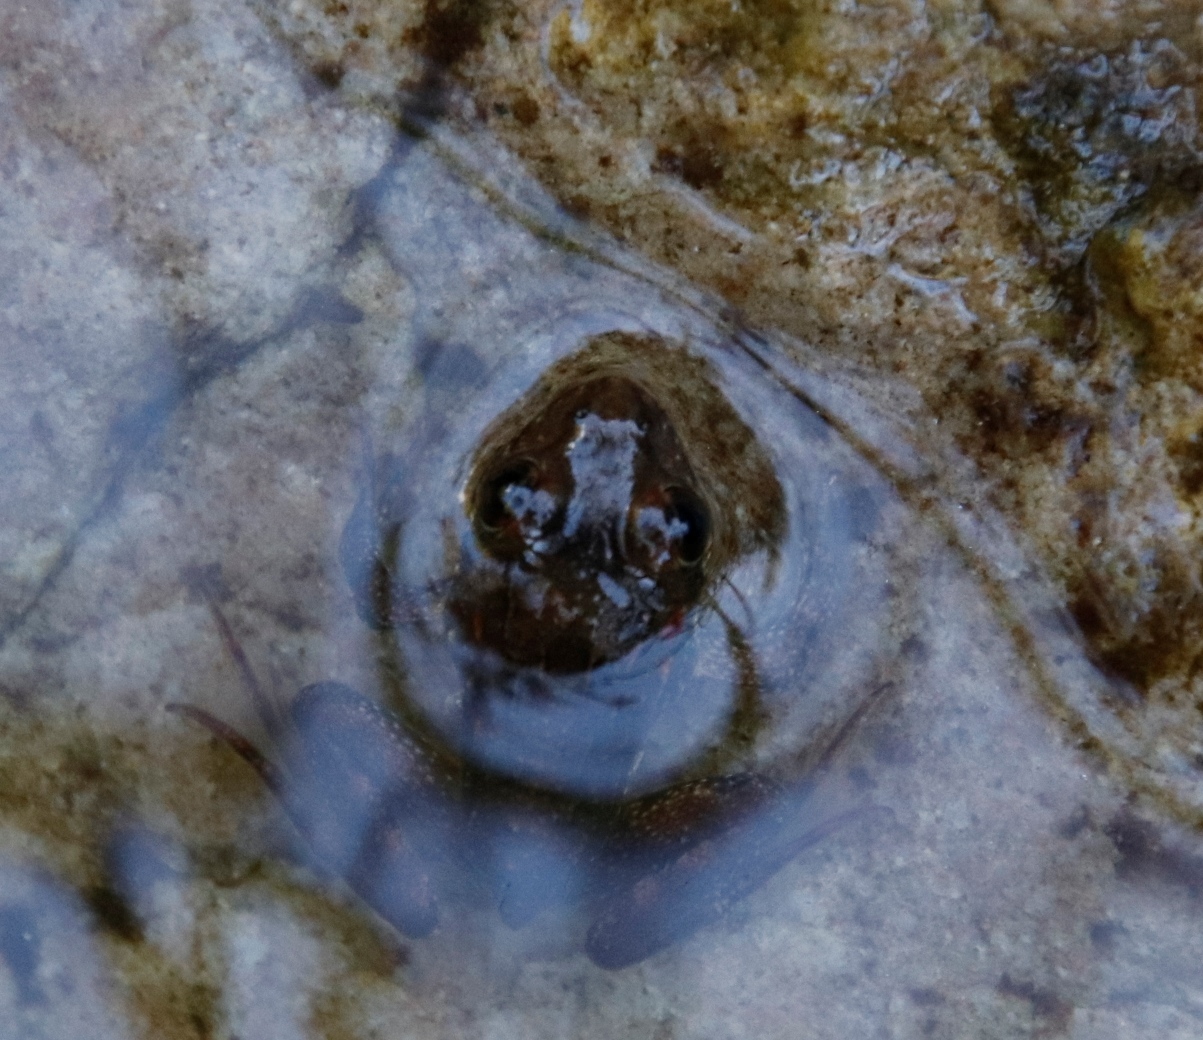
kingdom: Animalia
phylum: Chordata
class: Amphibia
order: Anura
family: Pyxicephalidae
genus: Amietia
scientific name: Amietia fuscigula
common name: Cape rana
